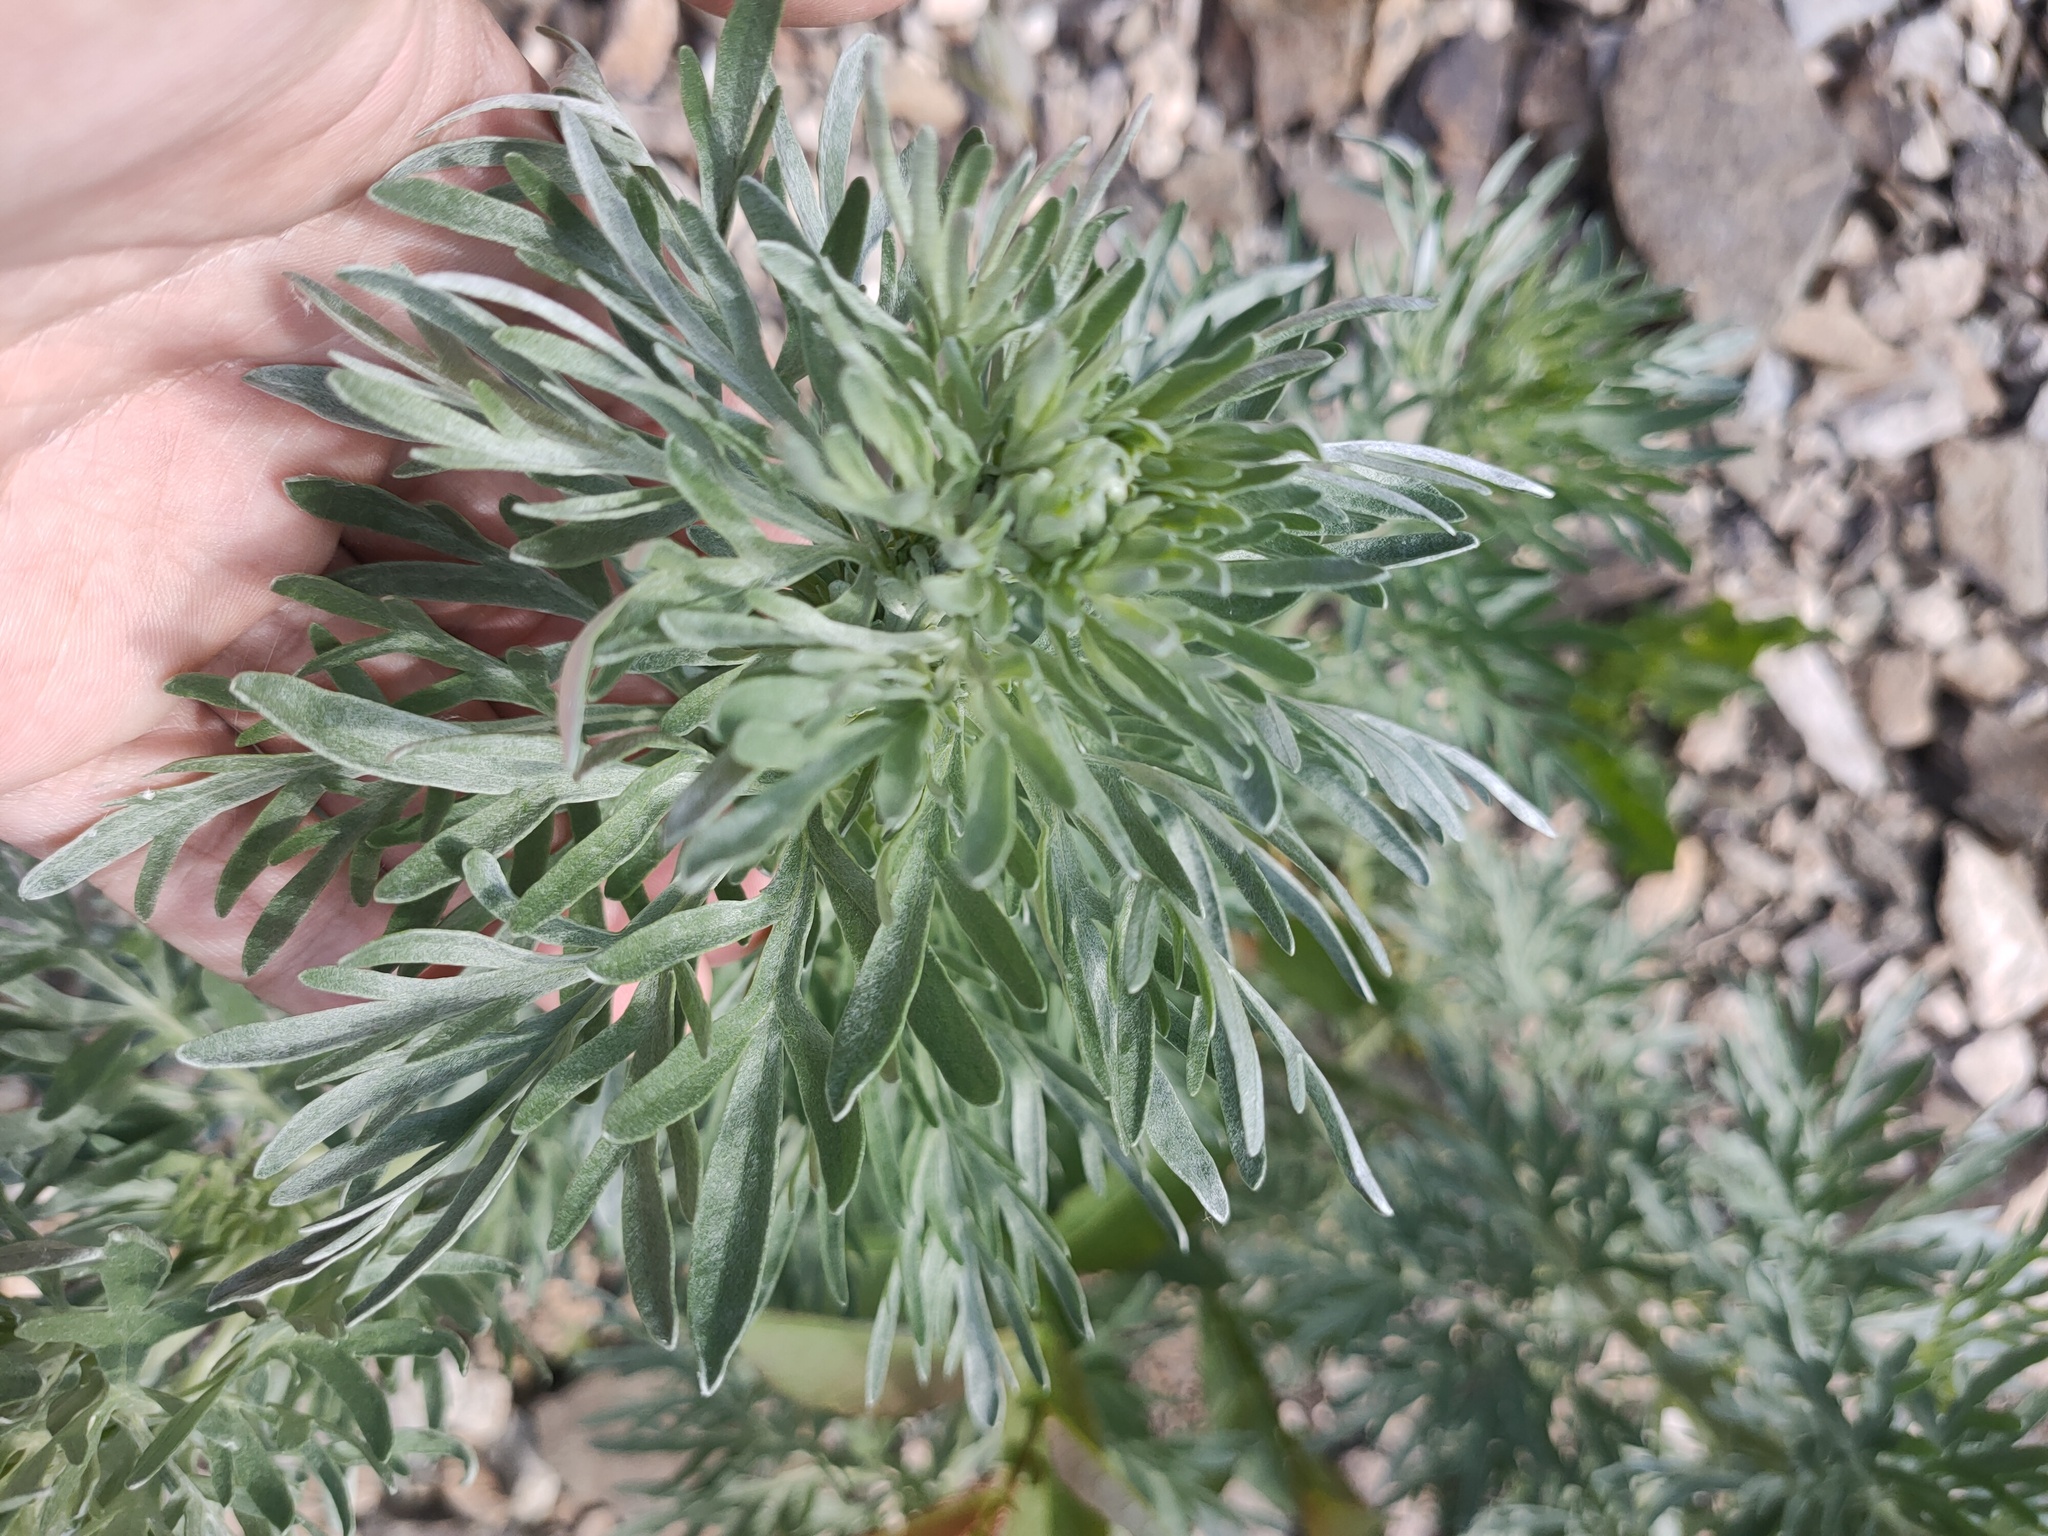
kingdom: Plantae
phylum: Tracheophyta
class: Magnoliopsida
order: Asterales
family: Asteraceae
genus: Artemisia
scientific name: Artemisia absinthium
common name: Wormwood
